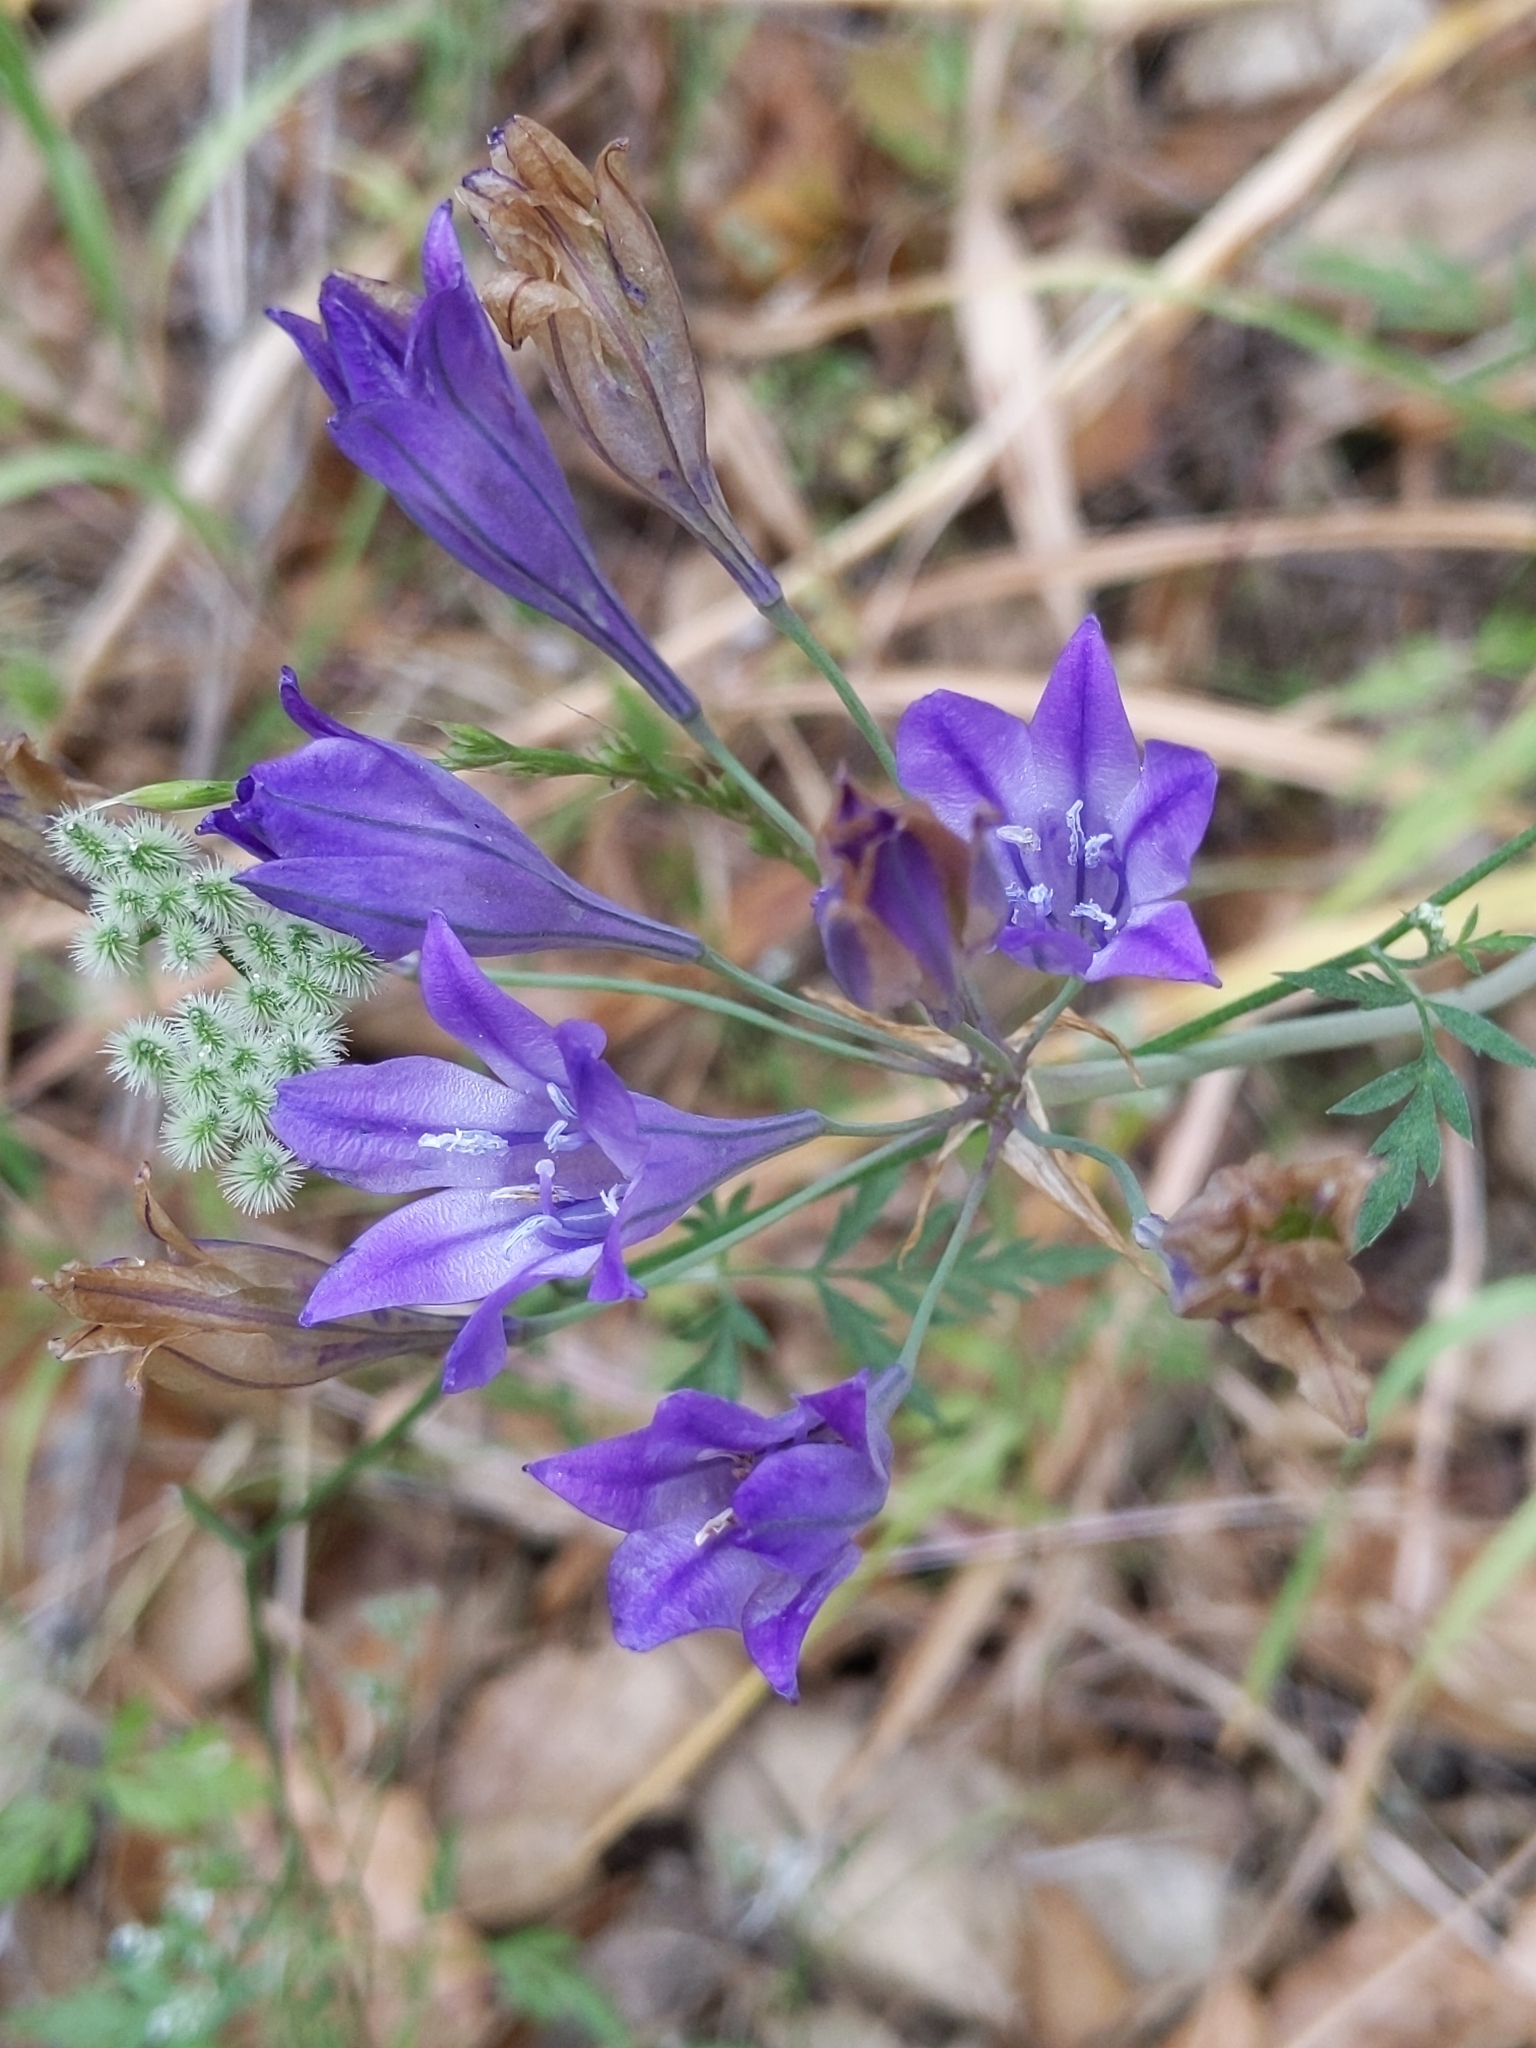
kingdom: Plantae
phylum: Tracheophyta
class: Liliopsida
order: Asparagales
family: Asparagaceae
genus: Triteleia
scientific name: Triteleia laxa
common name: Triplet-lily
